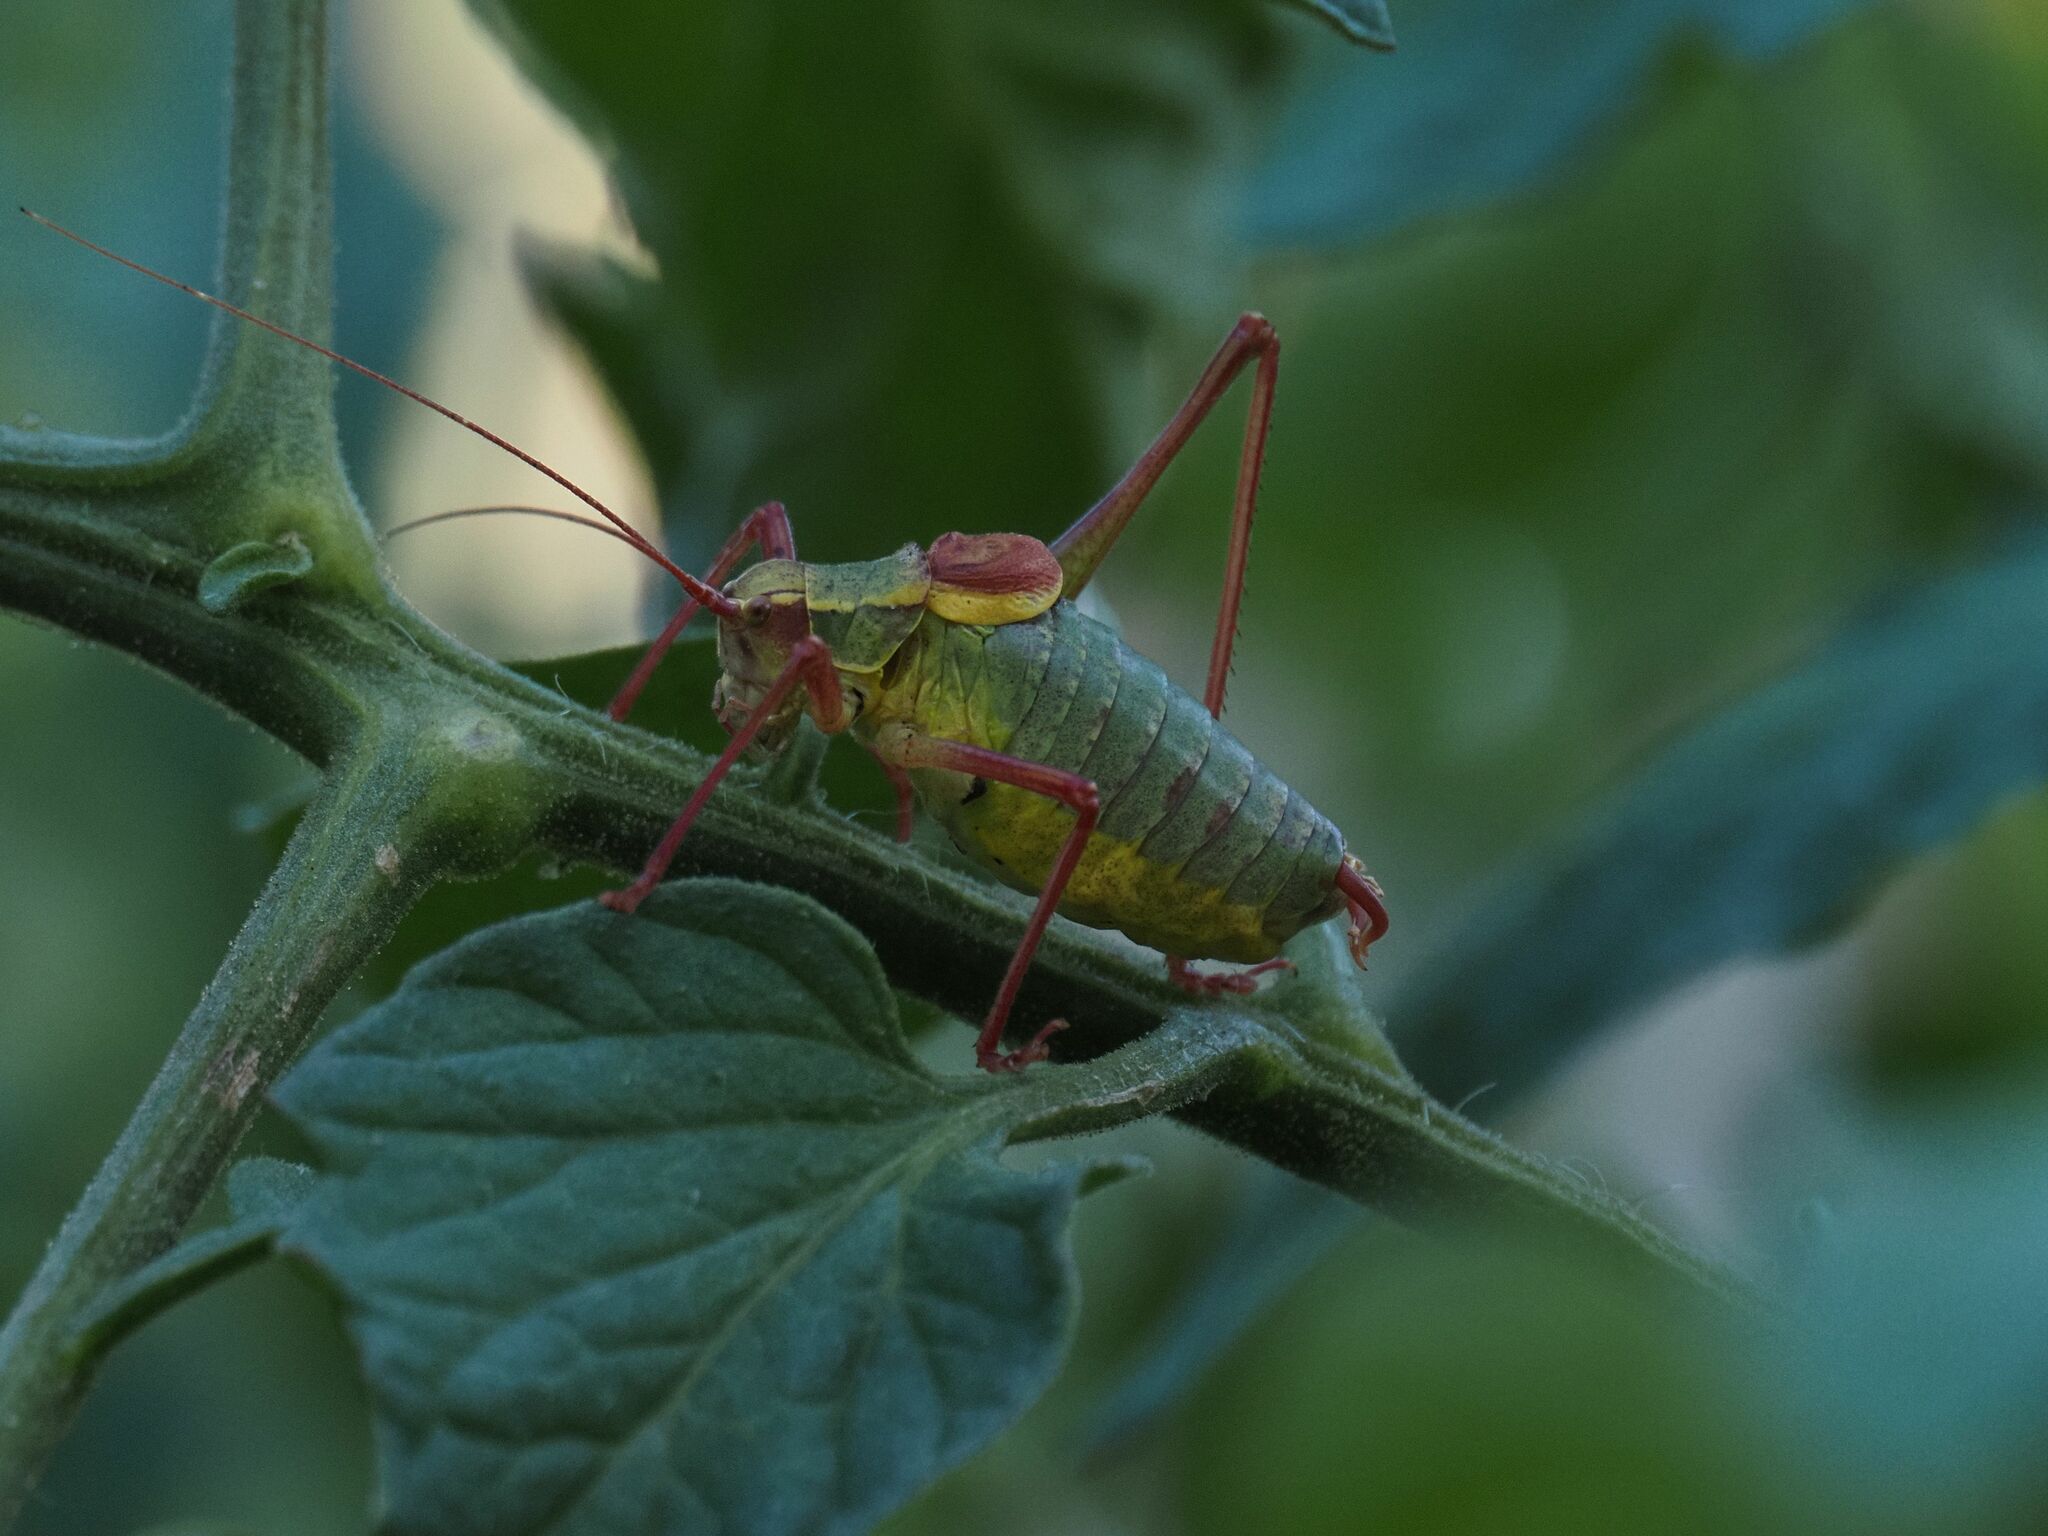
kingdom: Animalia
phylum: Arthropoda
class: Insecta
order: Orthoptera
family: Tettigoniidae
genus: Barbitistes
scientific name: Barbitistes serricauda
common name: Saw-tailed bush-cricket
